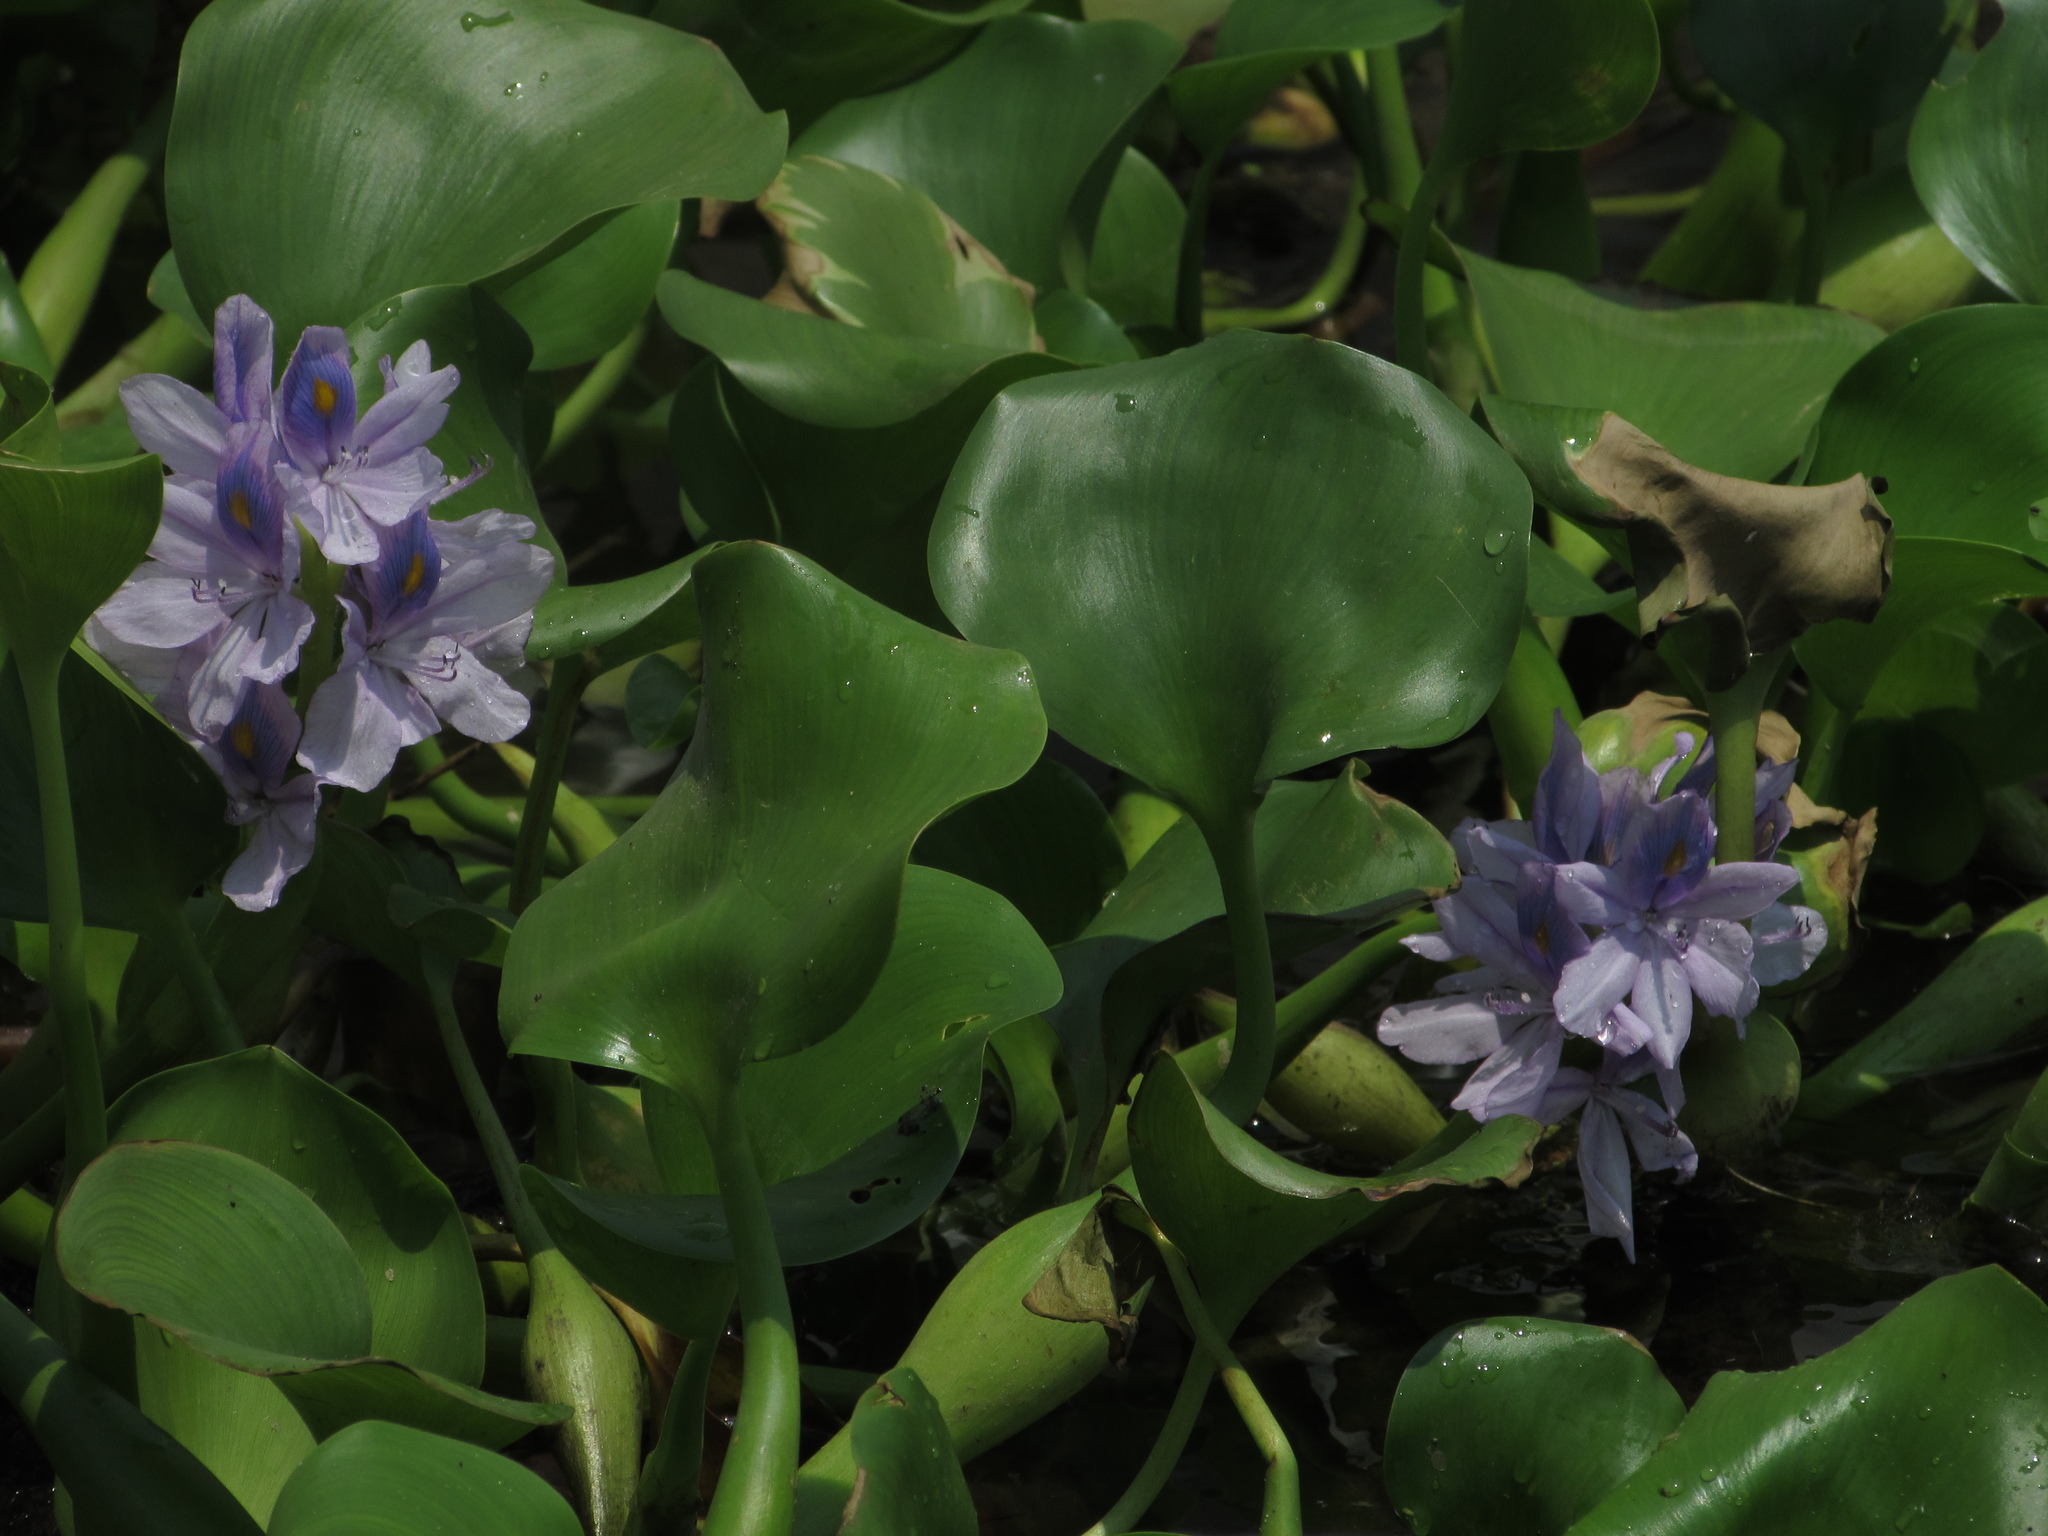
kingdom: Plantae
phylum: Tracheophyta
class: Liliopsida
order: Commelinales
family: Pontederiaceae
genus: Pontederia
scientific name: Pontederia crassipes
